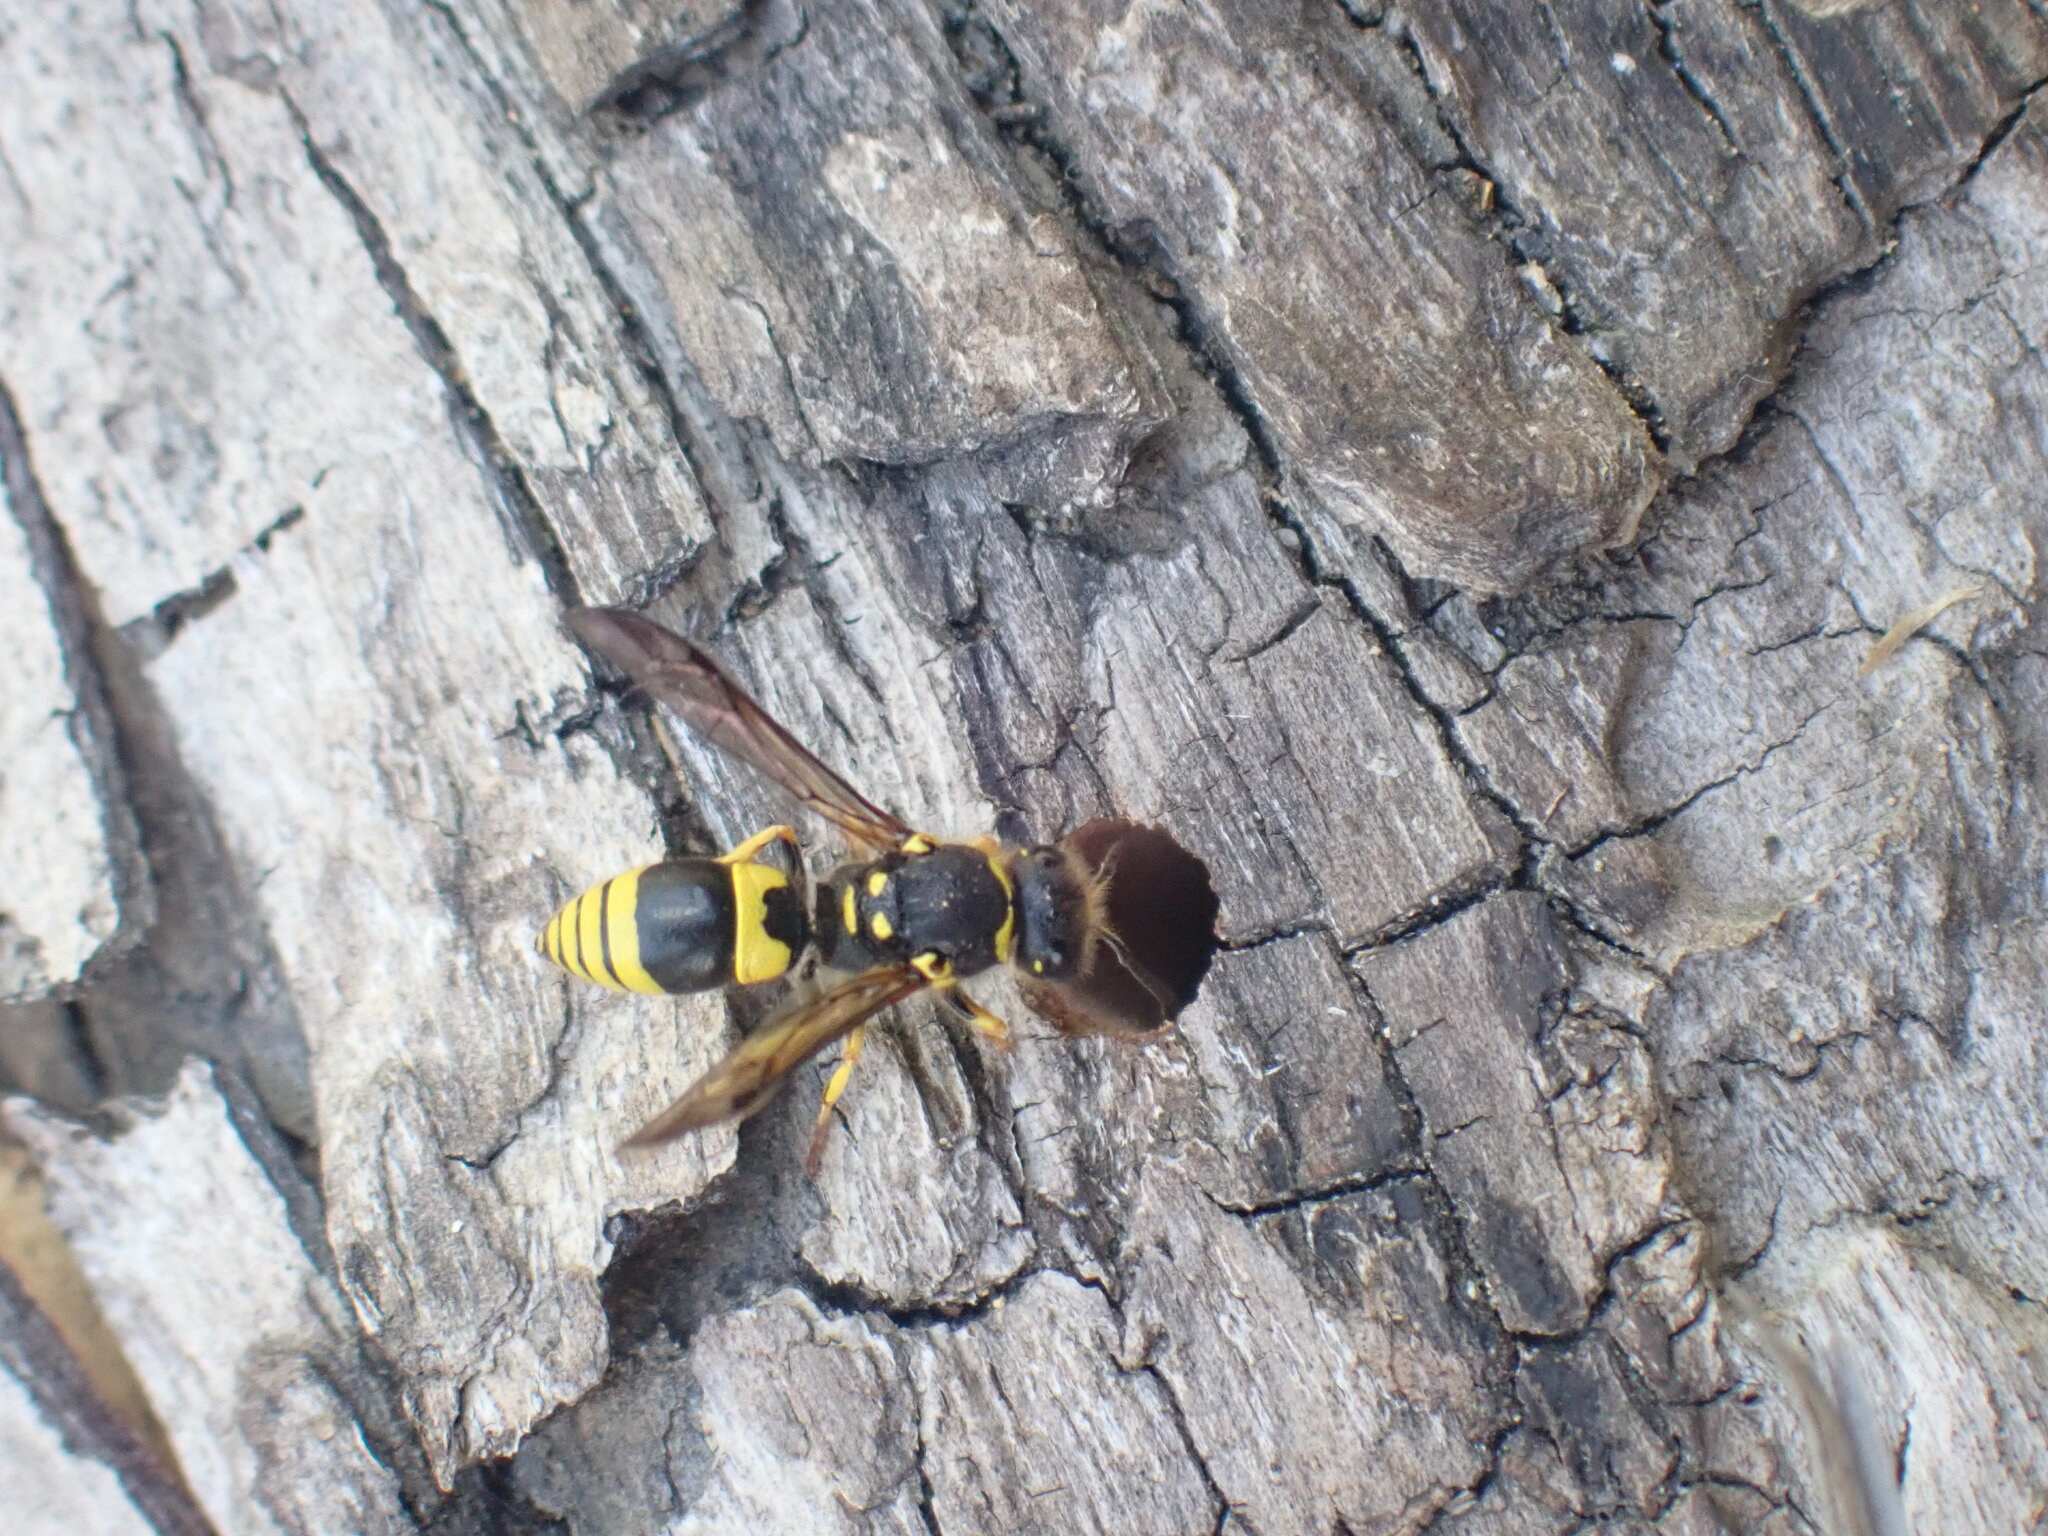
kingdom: Animalia
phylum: Arthropoda
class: Insecta
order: Hymenoptera
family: Vespidae
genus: Ancistrocerus
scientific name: Ancistrocerus gazella
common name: European tube wasp
